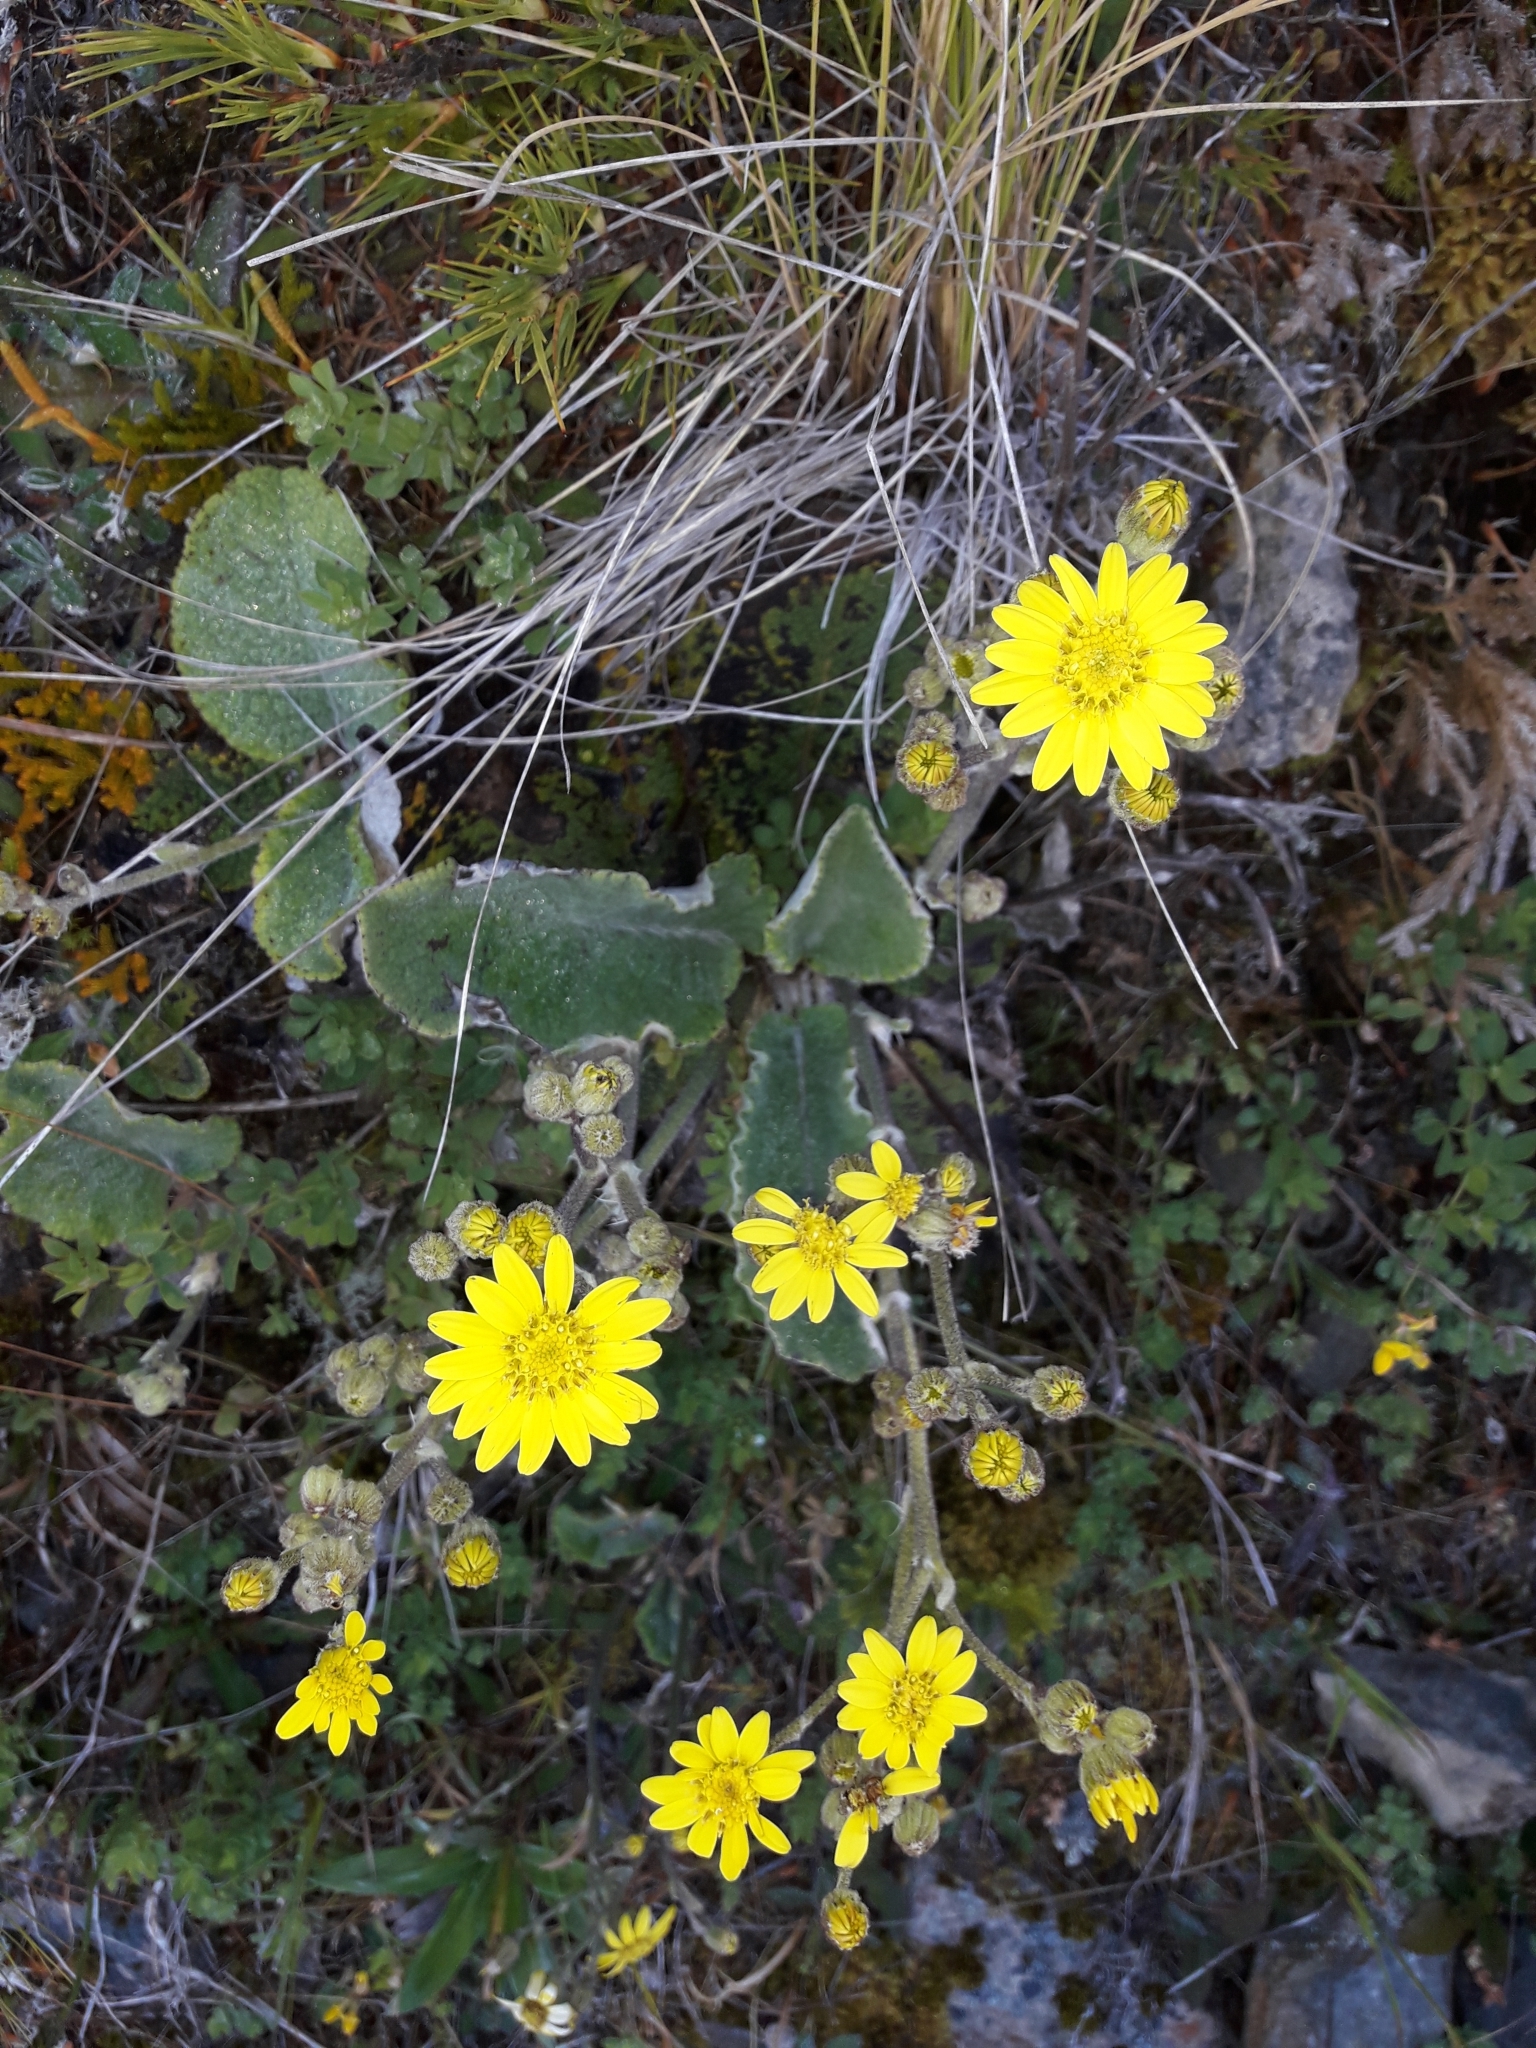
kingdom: Plantae
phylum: Tracheophyta
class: Magnoliopsida
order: Asterales
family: Asteraceae
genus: Brachyglottis
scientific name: Brachyglottis lagopus
